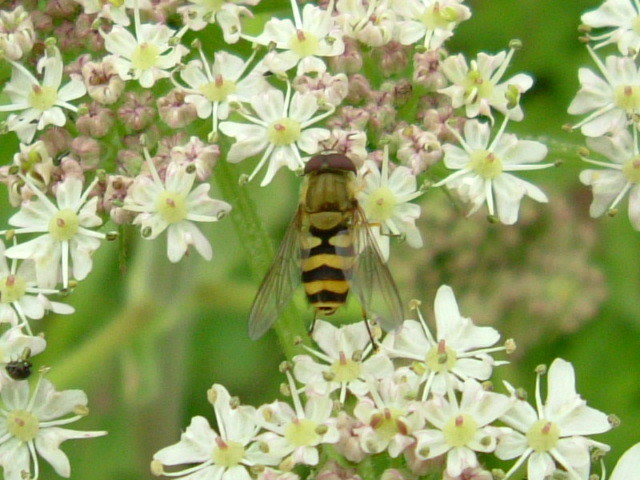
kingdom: Animalia
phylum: Arthropoda
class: Insecta
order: Diptera
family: Syrphidae
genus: Syrphus
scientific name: Syrphus
